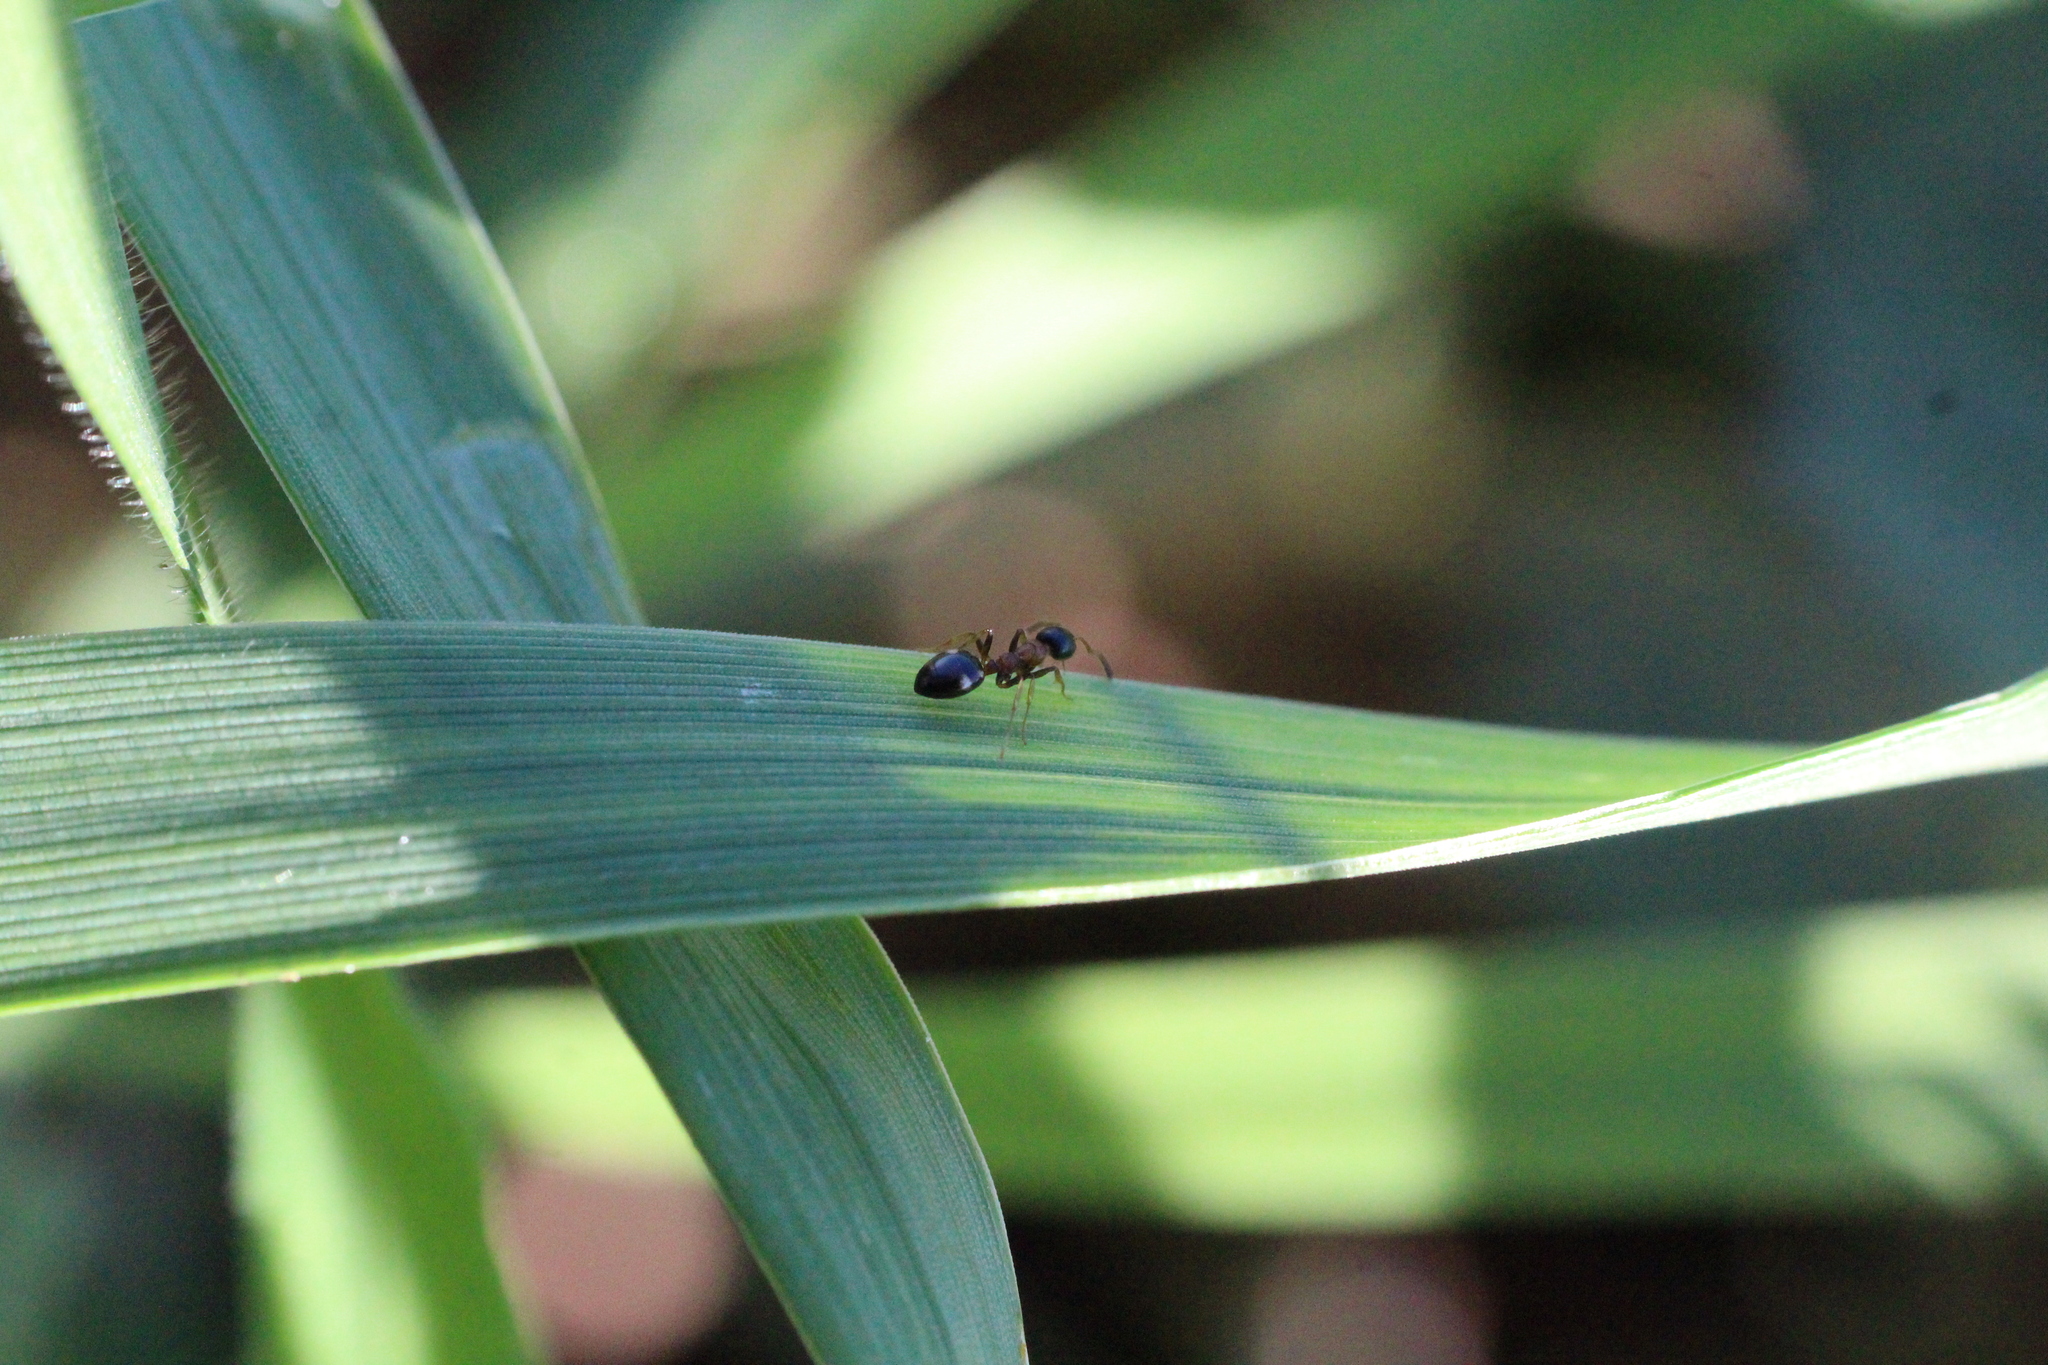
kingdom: Animalia
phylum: Arthropoda
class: Insecta
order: Hymenoptera
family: Formicidae
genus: Dolichoderus
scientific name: Dolichoderus quadripunctatus
